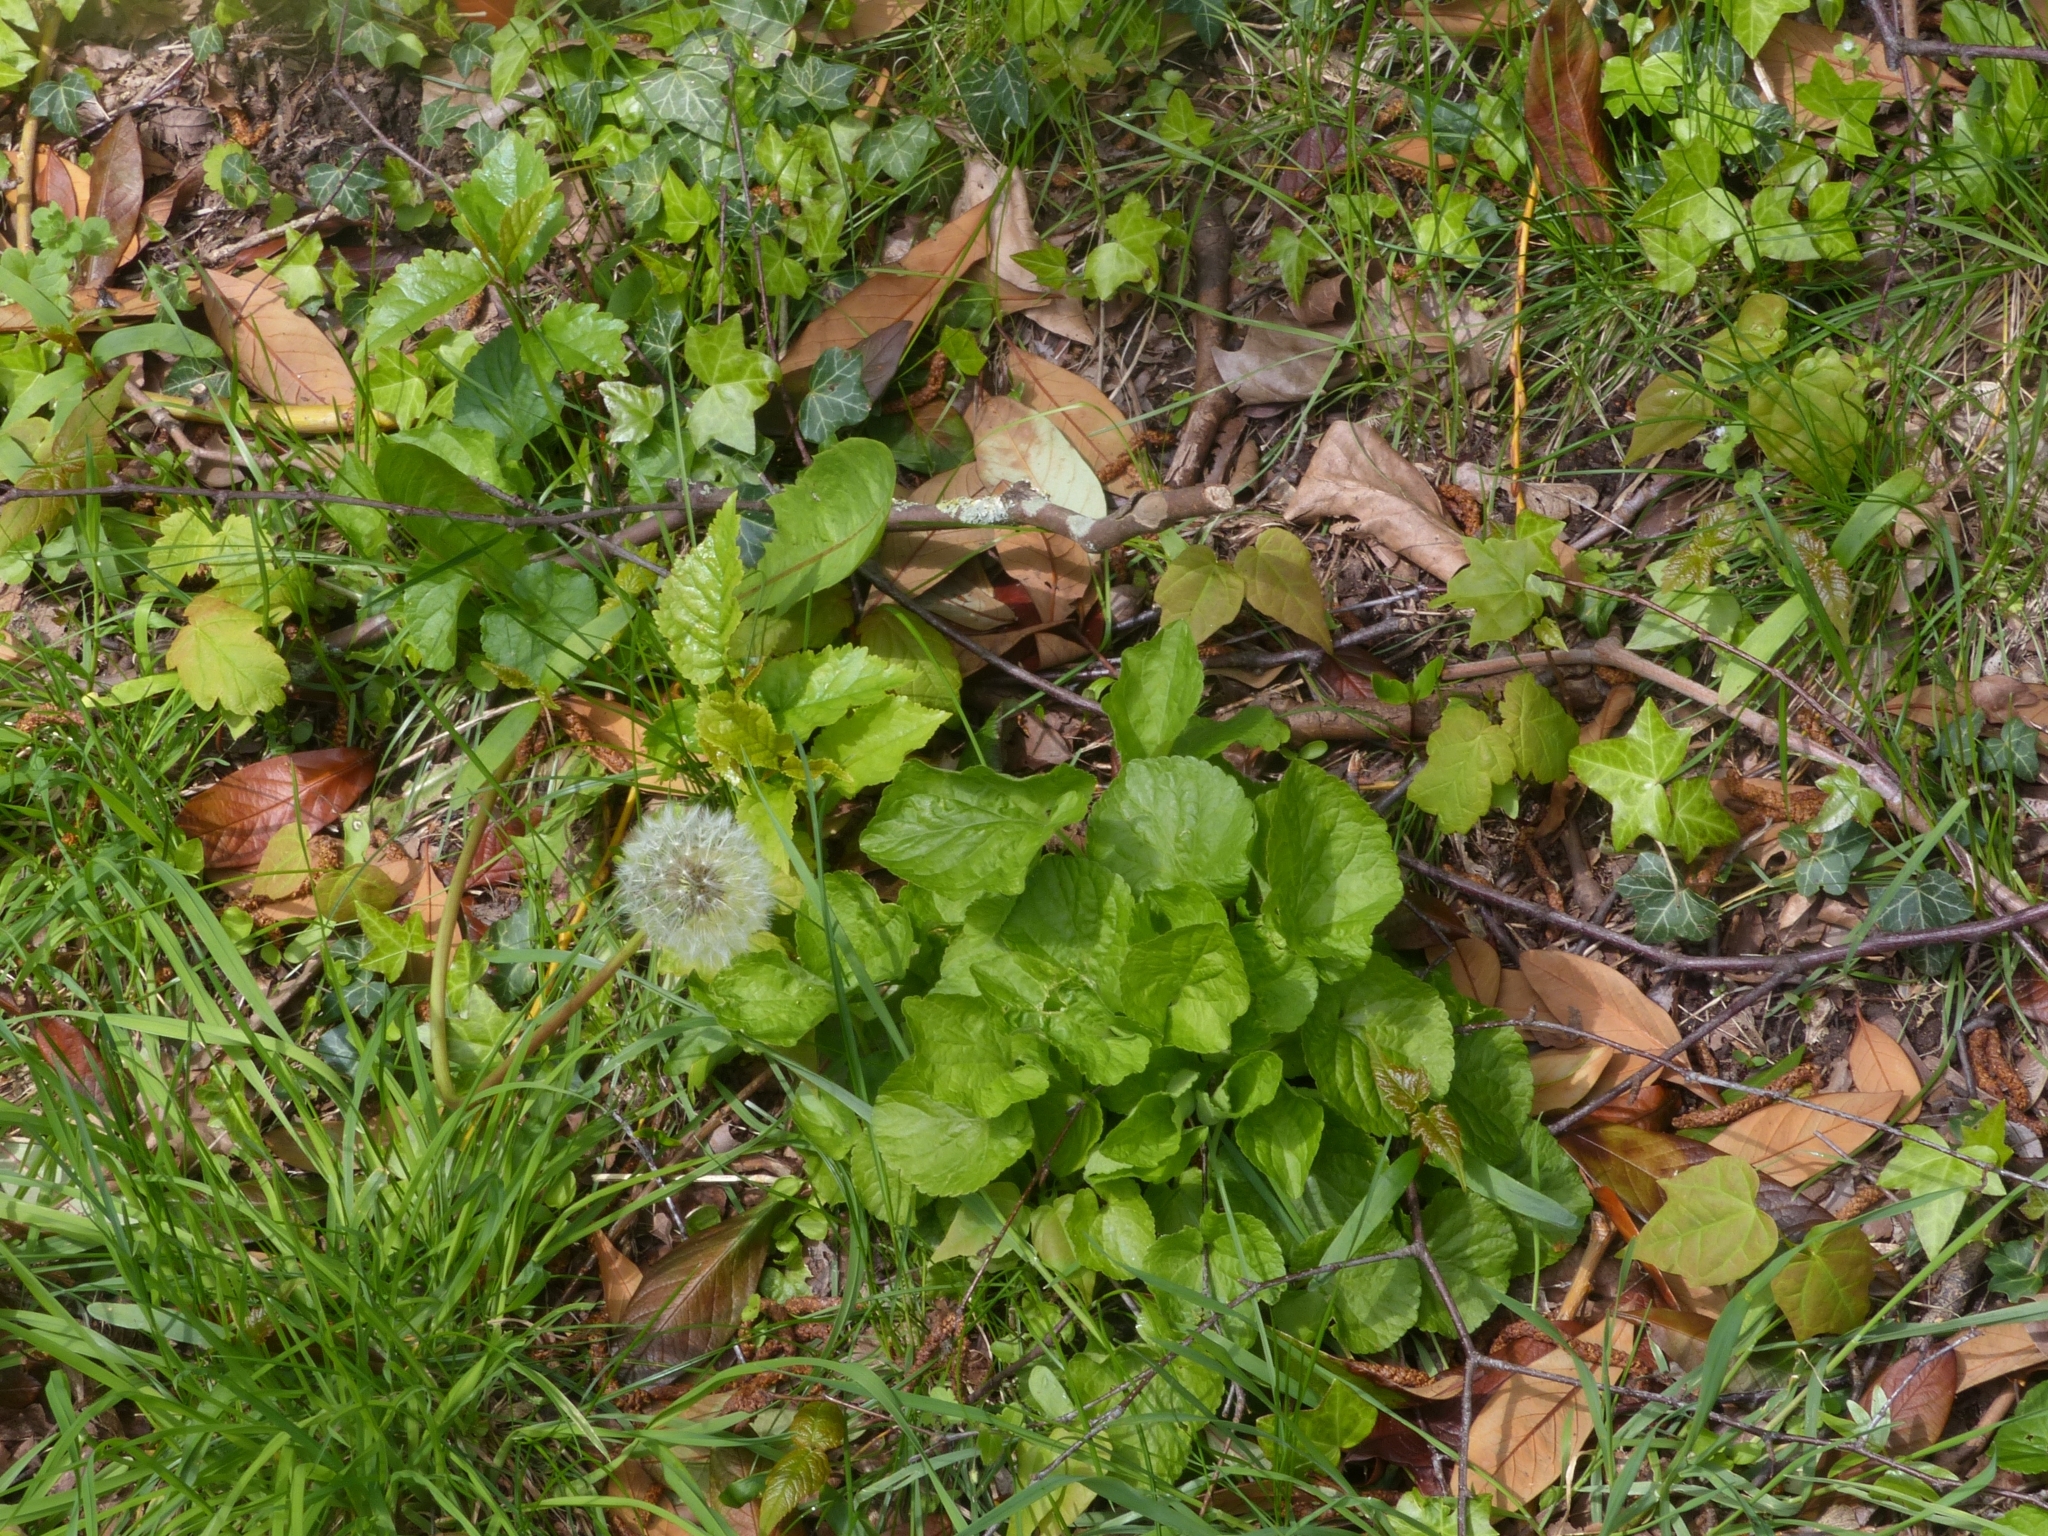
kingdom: Plantae
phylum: Tracheophyta
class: Magnoliopsida
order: Malpighiales
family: Violaceae
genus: Viola
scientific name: Viola odorata
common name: Sweet violet
